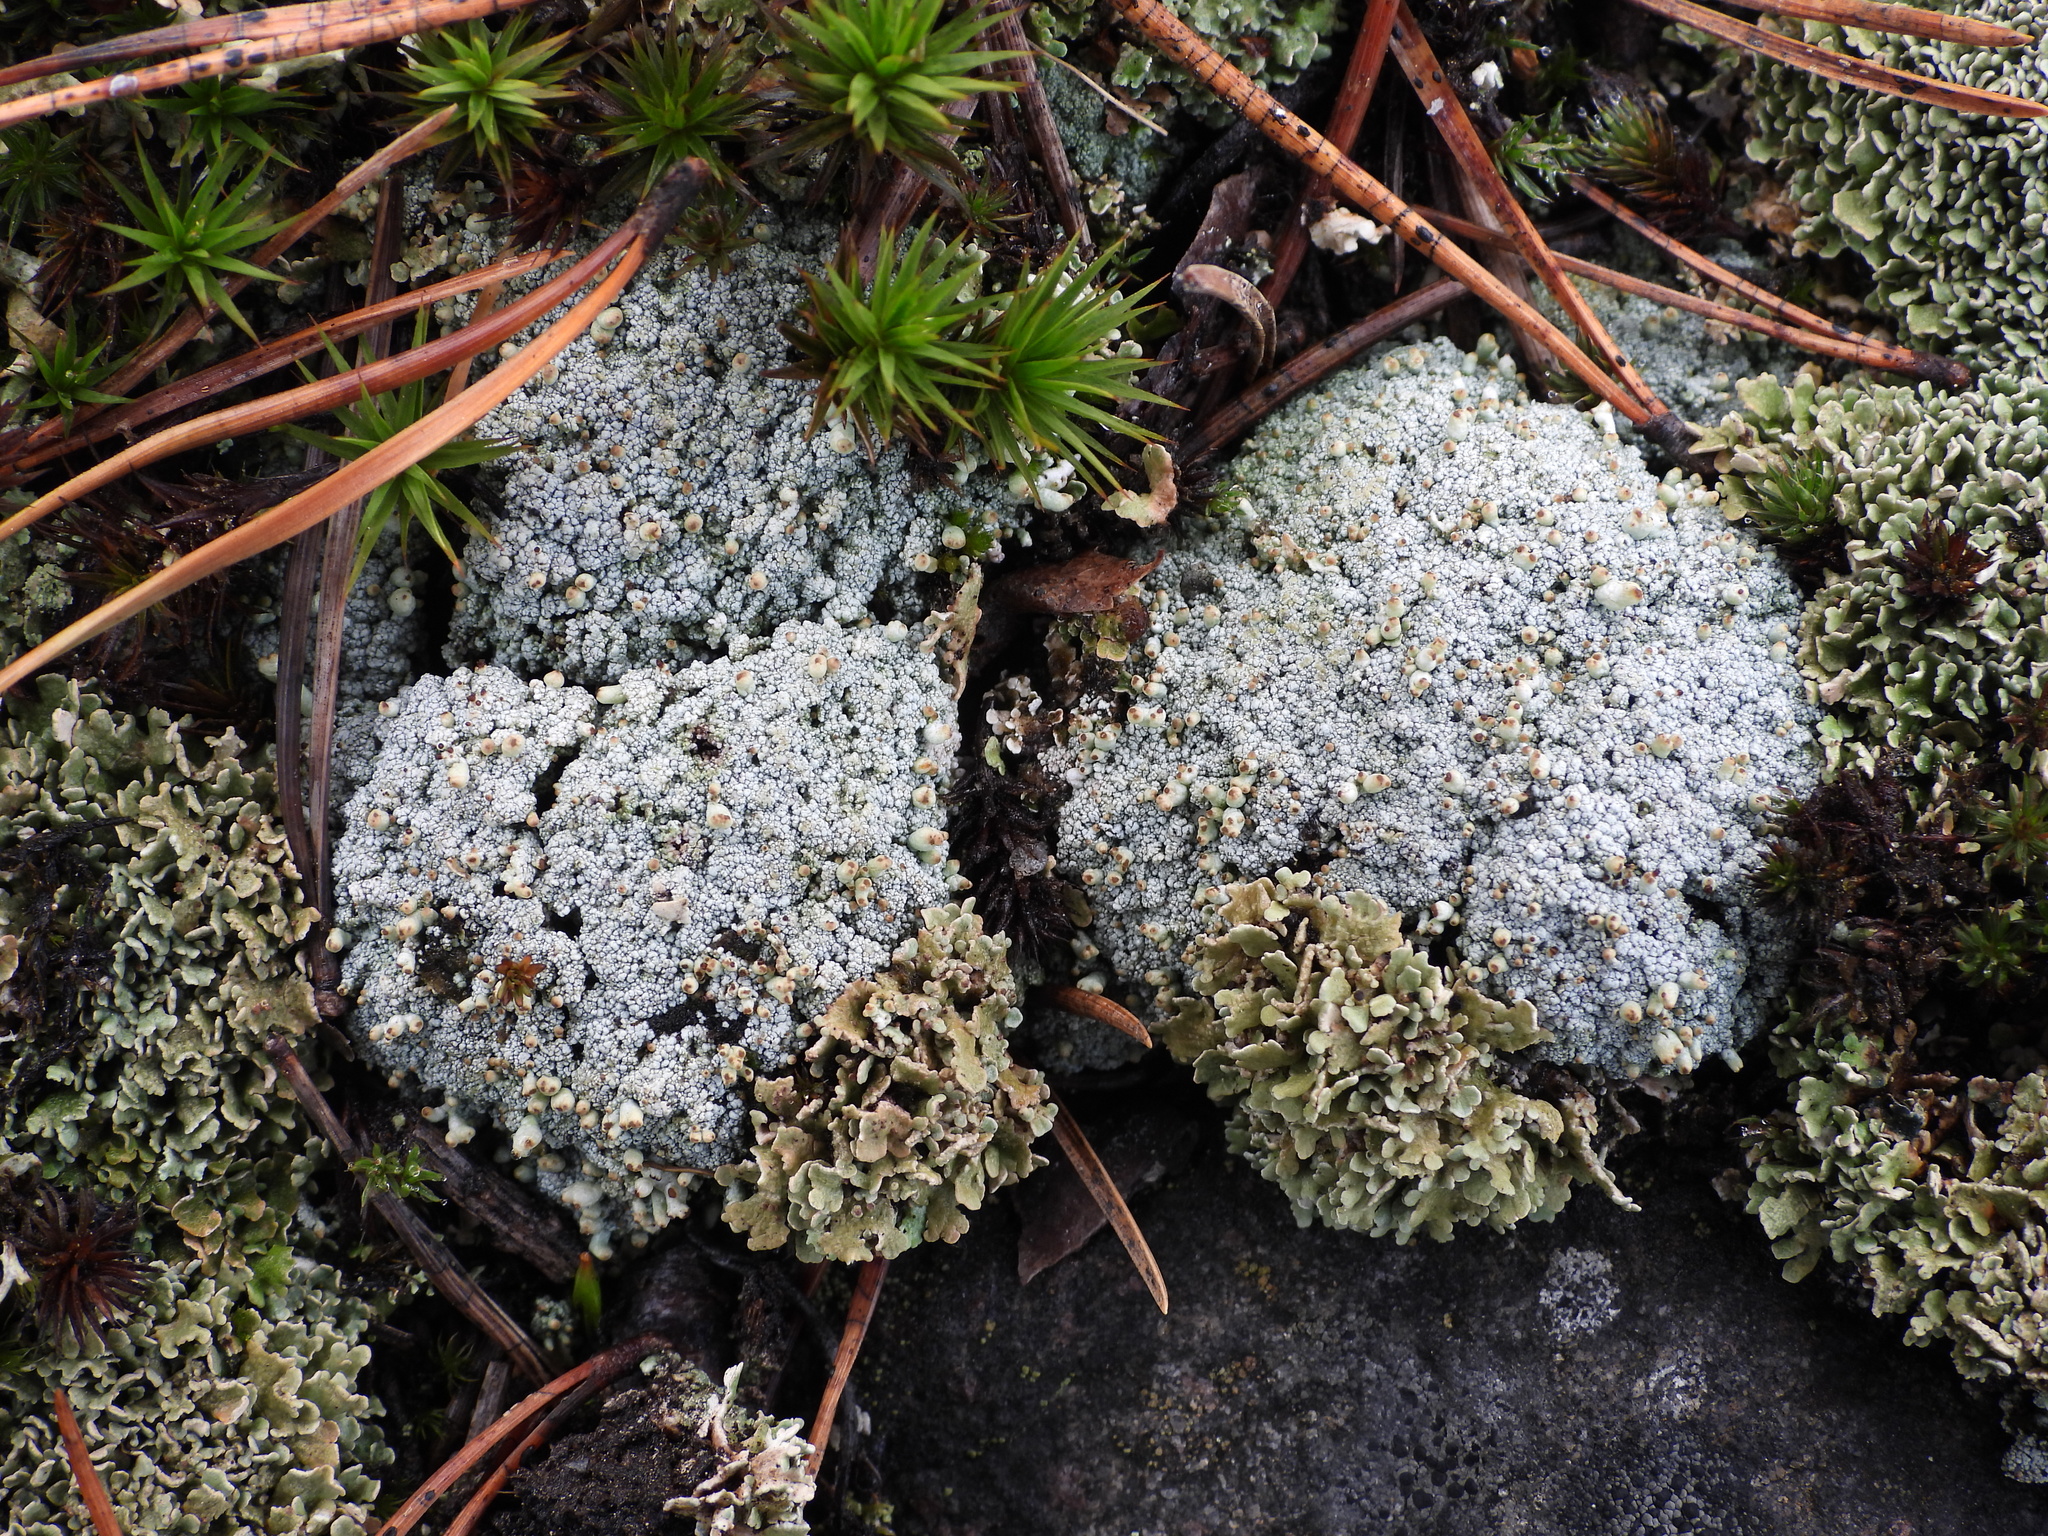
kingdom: Fungi
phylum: Ascomycota
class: Lecanoromycetes
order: Lecanorales
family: Cladoniaceae
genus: Pycnothelia
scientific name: Pycnothelia papillaria
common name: Nipple lichen
